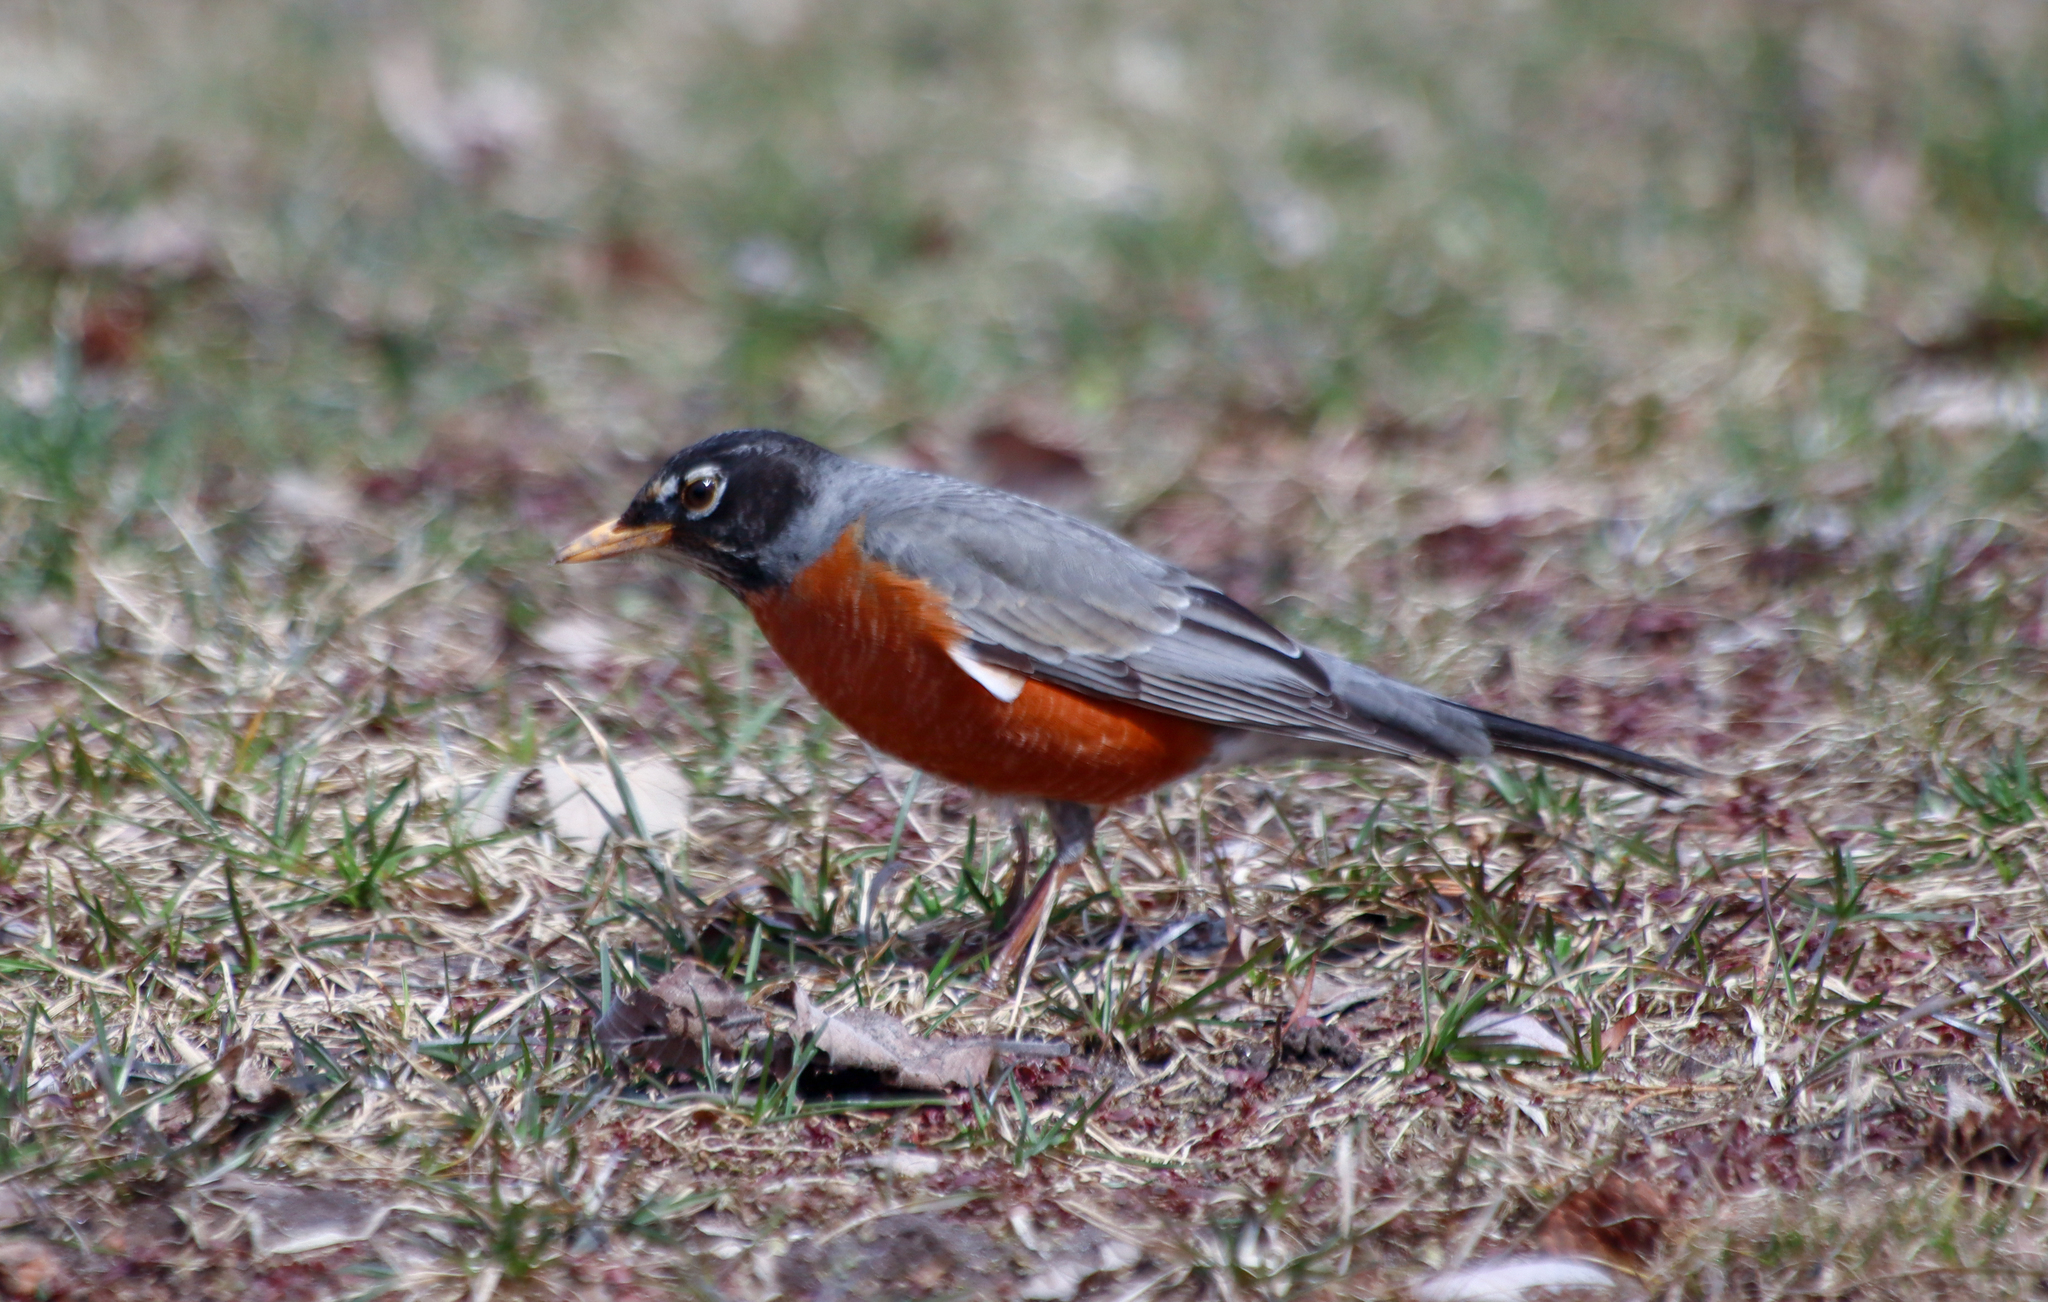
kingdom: Animalia
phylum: Chordata
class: Aves
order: Passeriformes
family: Turdidae
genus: Turdus
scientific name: Turdus migratorius
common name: American robin
